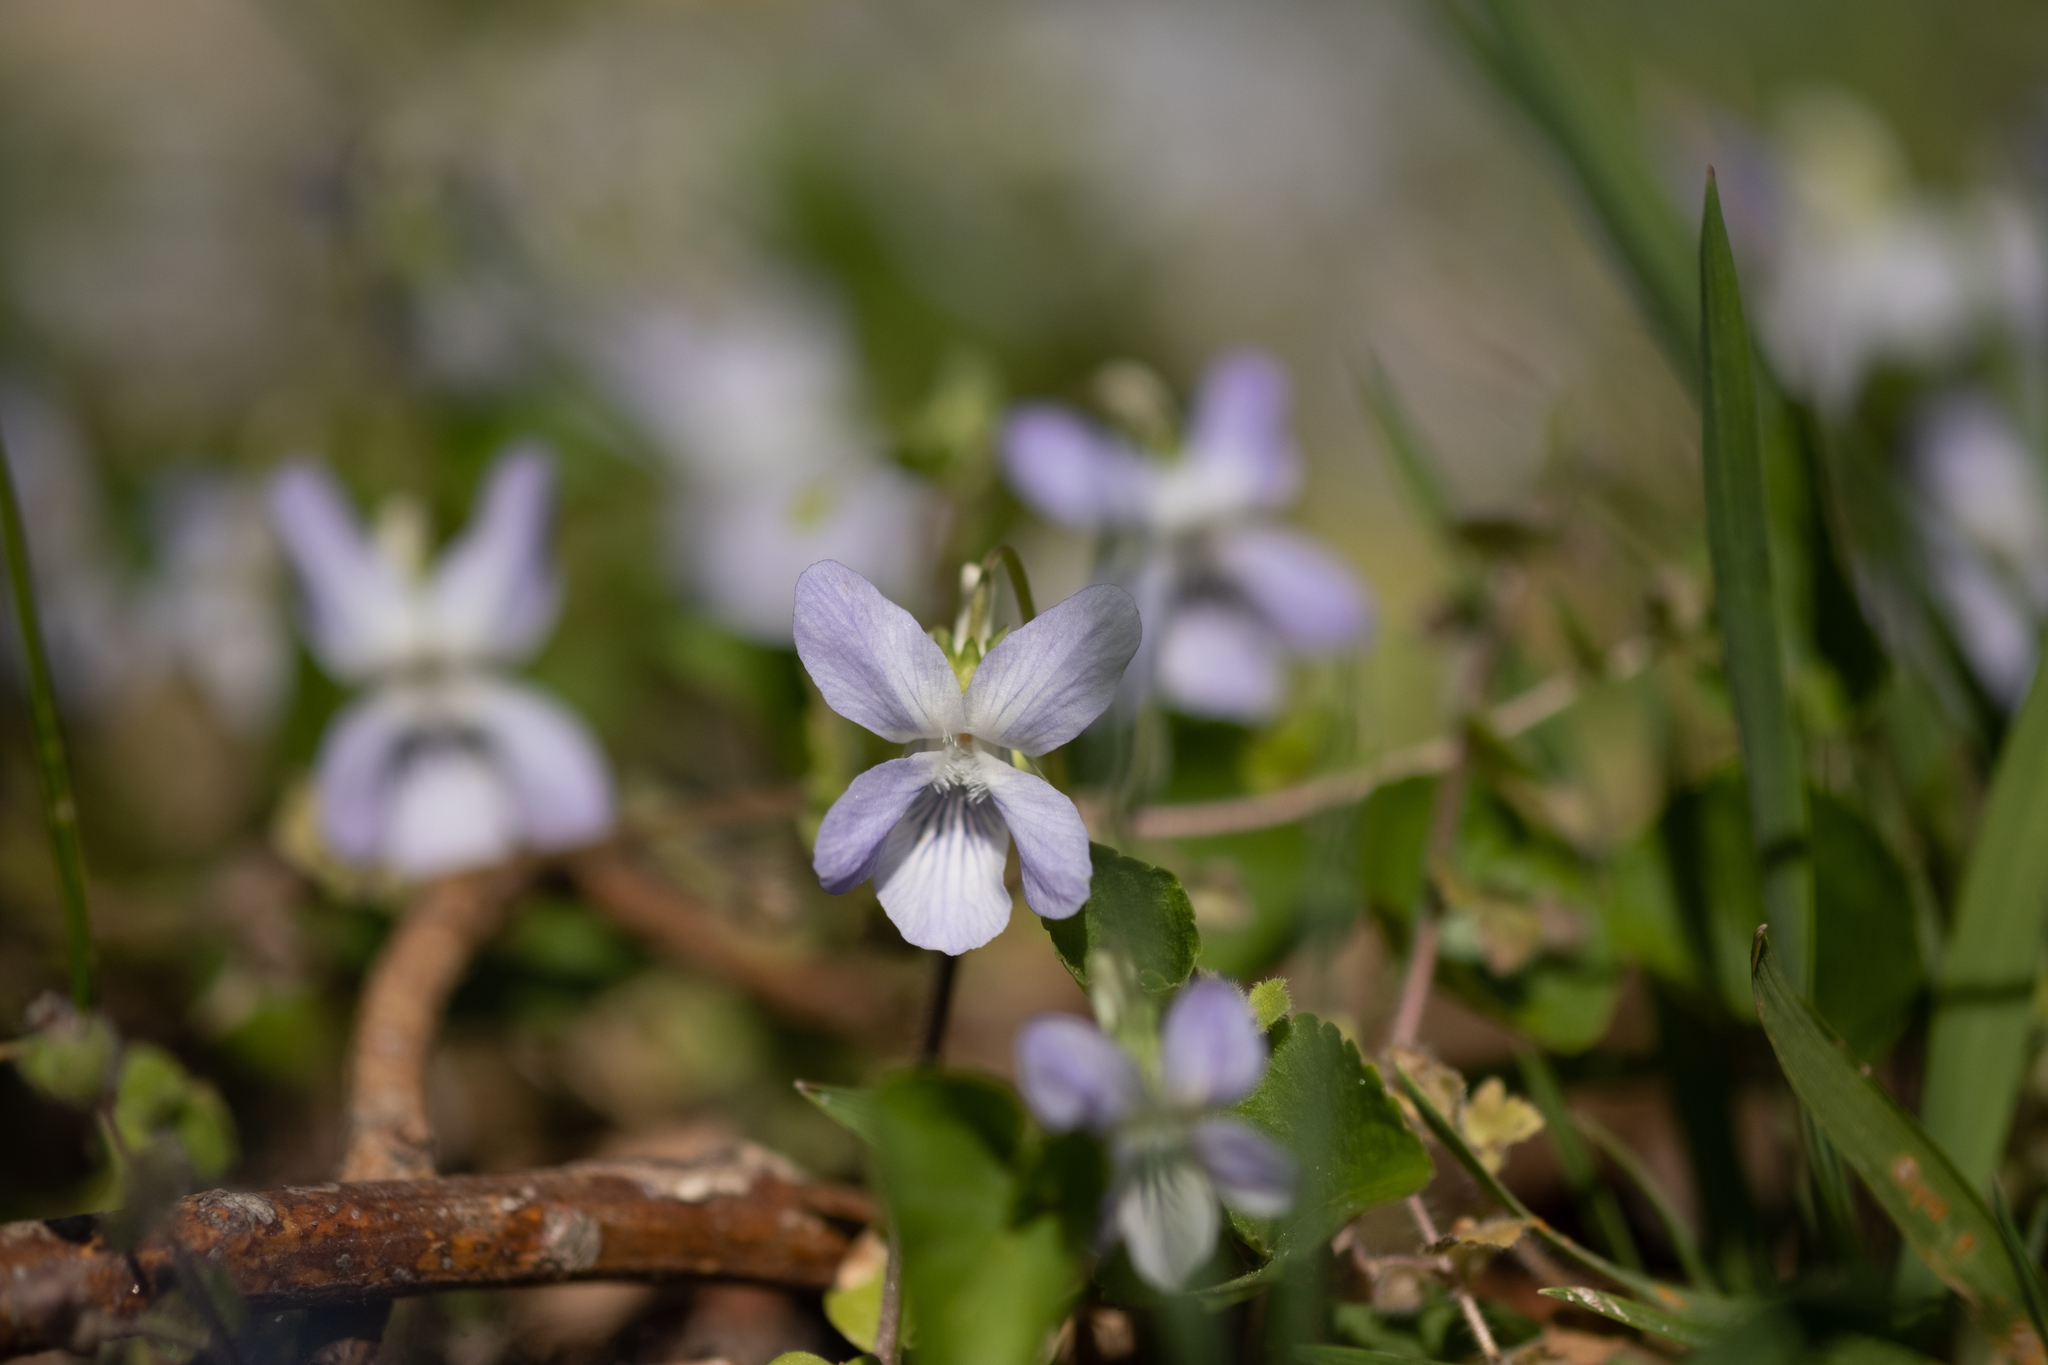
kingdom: Plantae
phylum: Tracheophyta
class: Magnoliopsida
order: Malpighiales
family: Violaceae
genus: Viola
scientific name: Viola riviniana
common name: Common dog-violet
